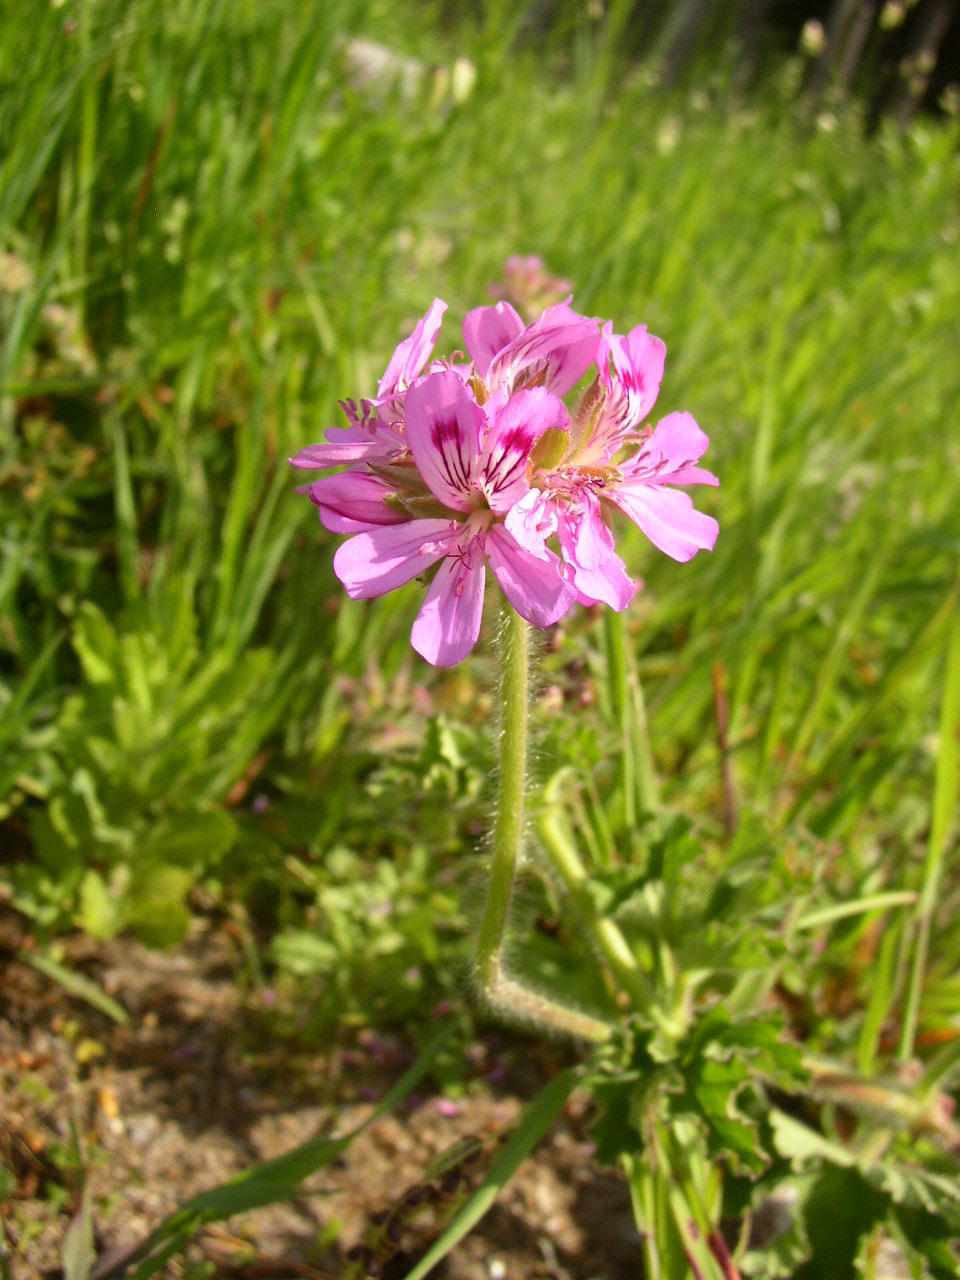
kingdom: Plantae
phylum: Tracheophyta
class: Magnoliopsida
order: Geraniales
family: Geraniaceae
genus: Pelargonium
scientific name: Pelargonium capitatum
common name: Rose scented geranium
